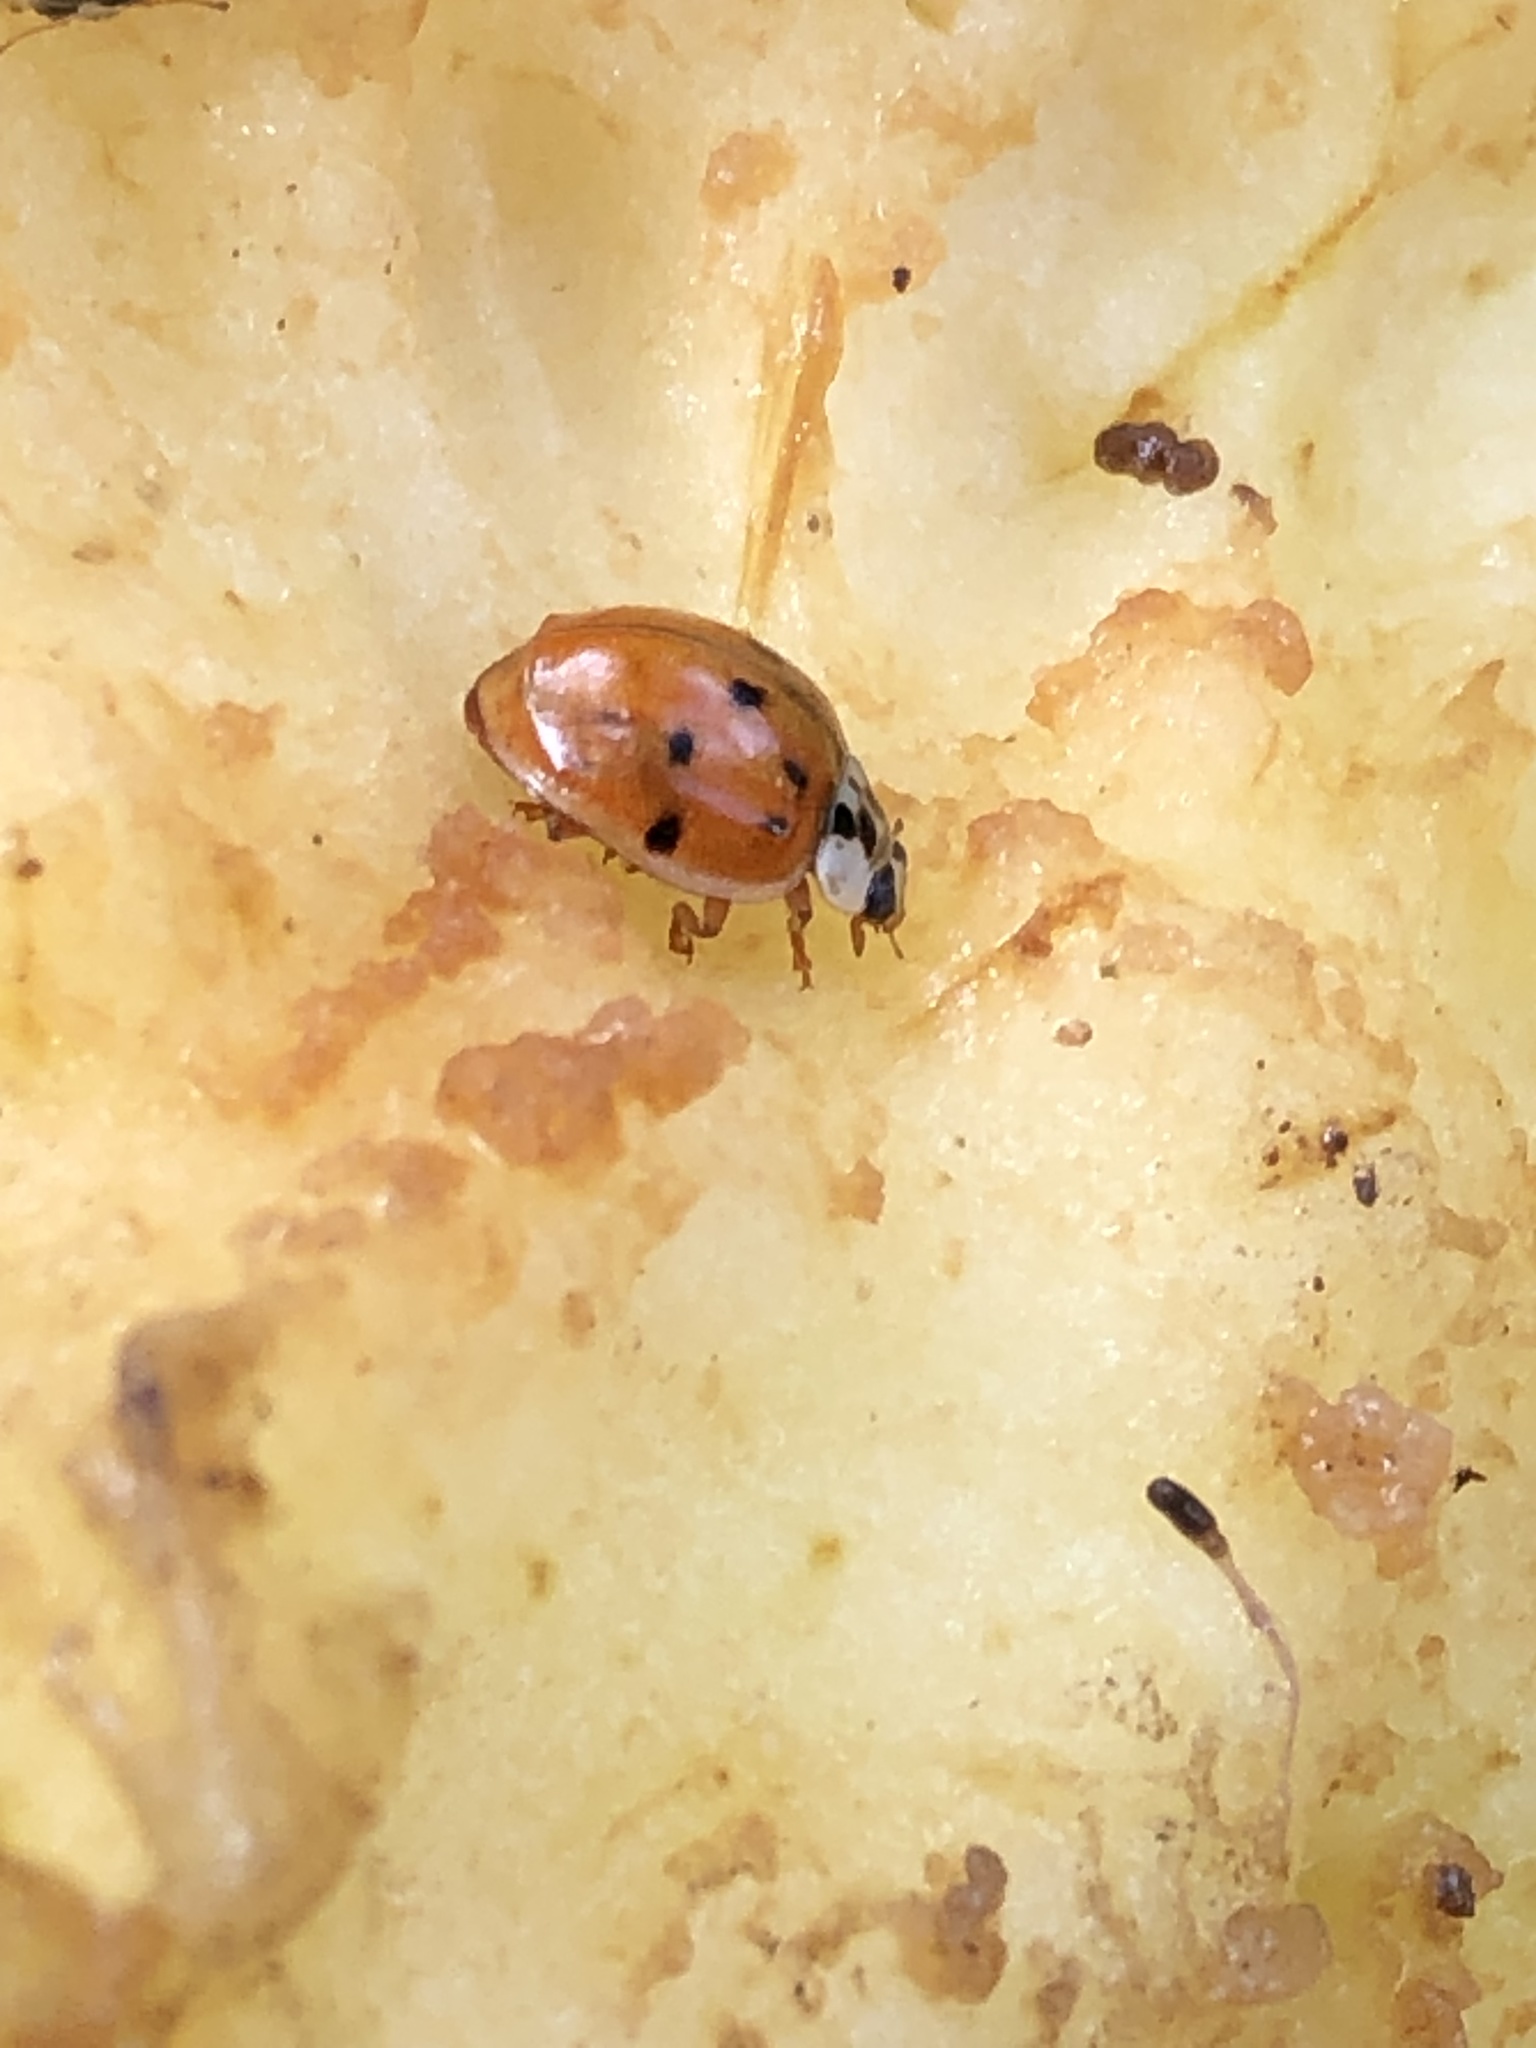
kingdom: Animalia
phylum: Arthropoda
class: Insecta
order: Coleoptera
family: Coccinellidae
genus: Harmonia
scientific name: Harmonia axyridis
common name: Harlequin ladybird
